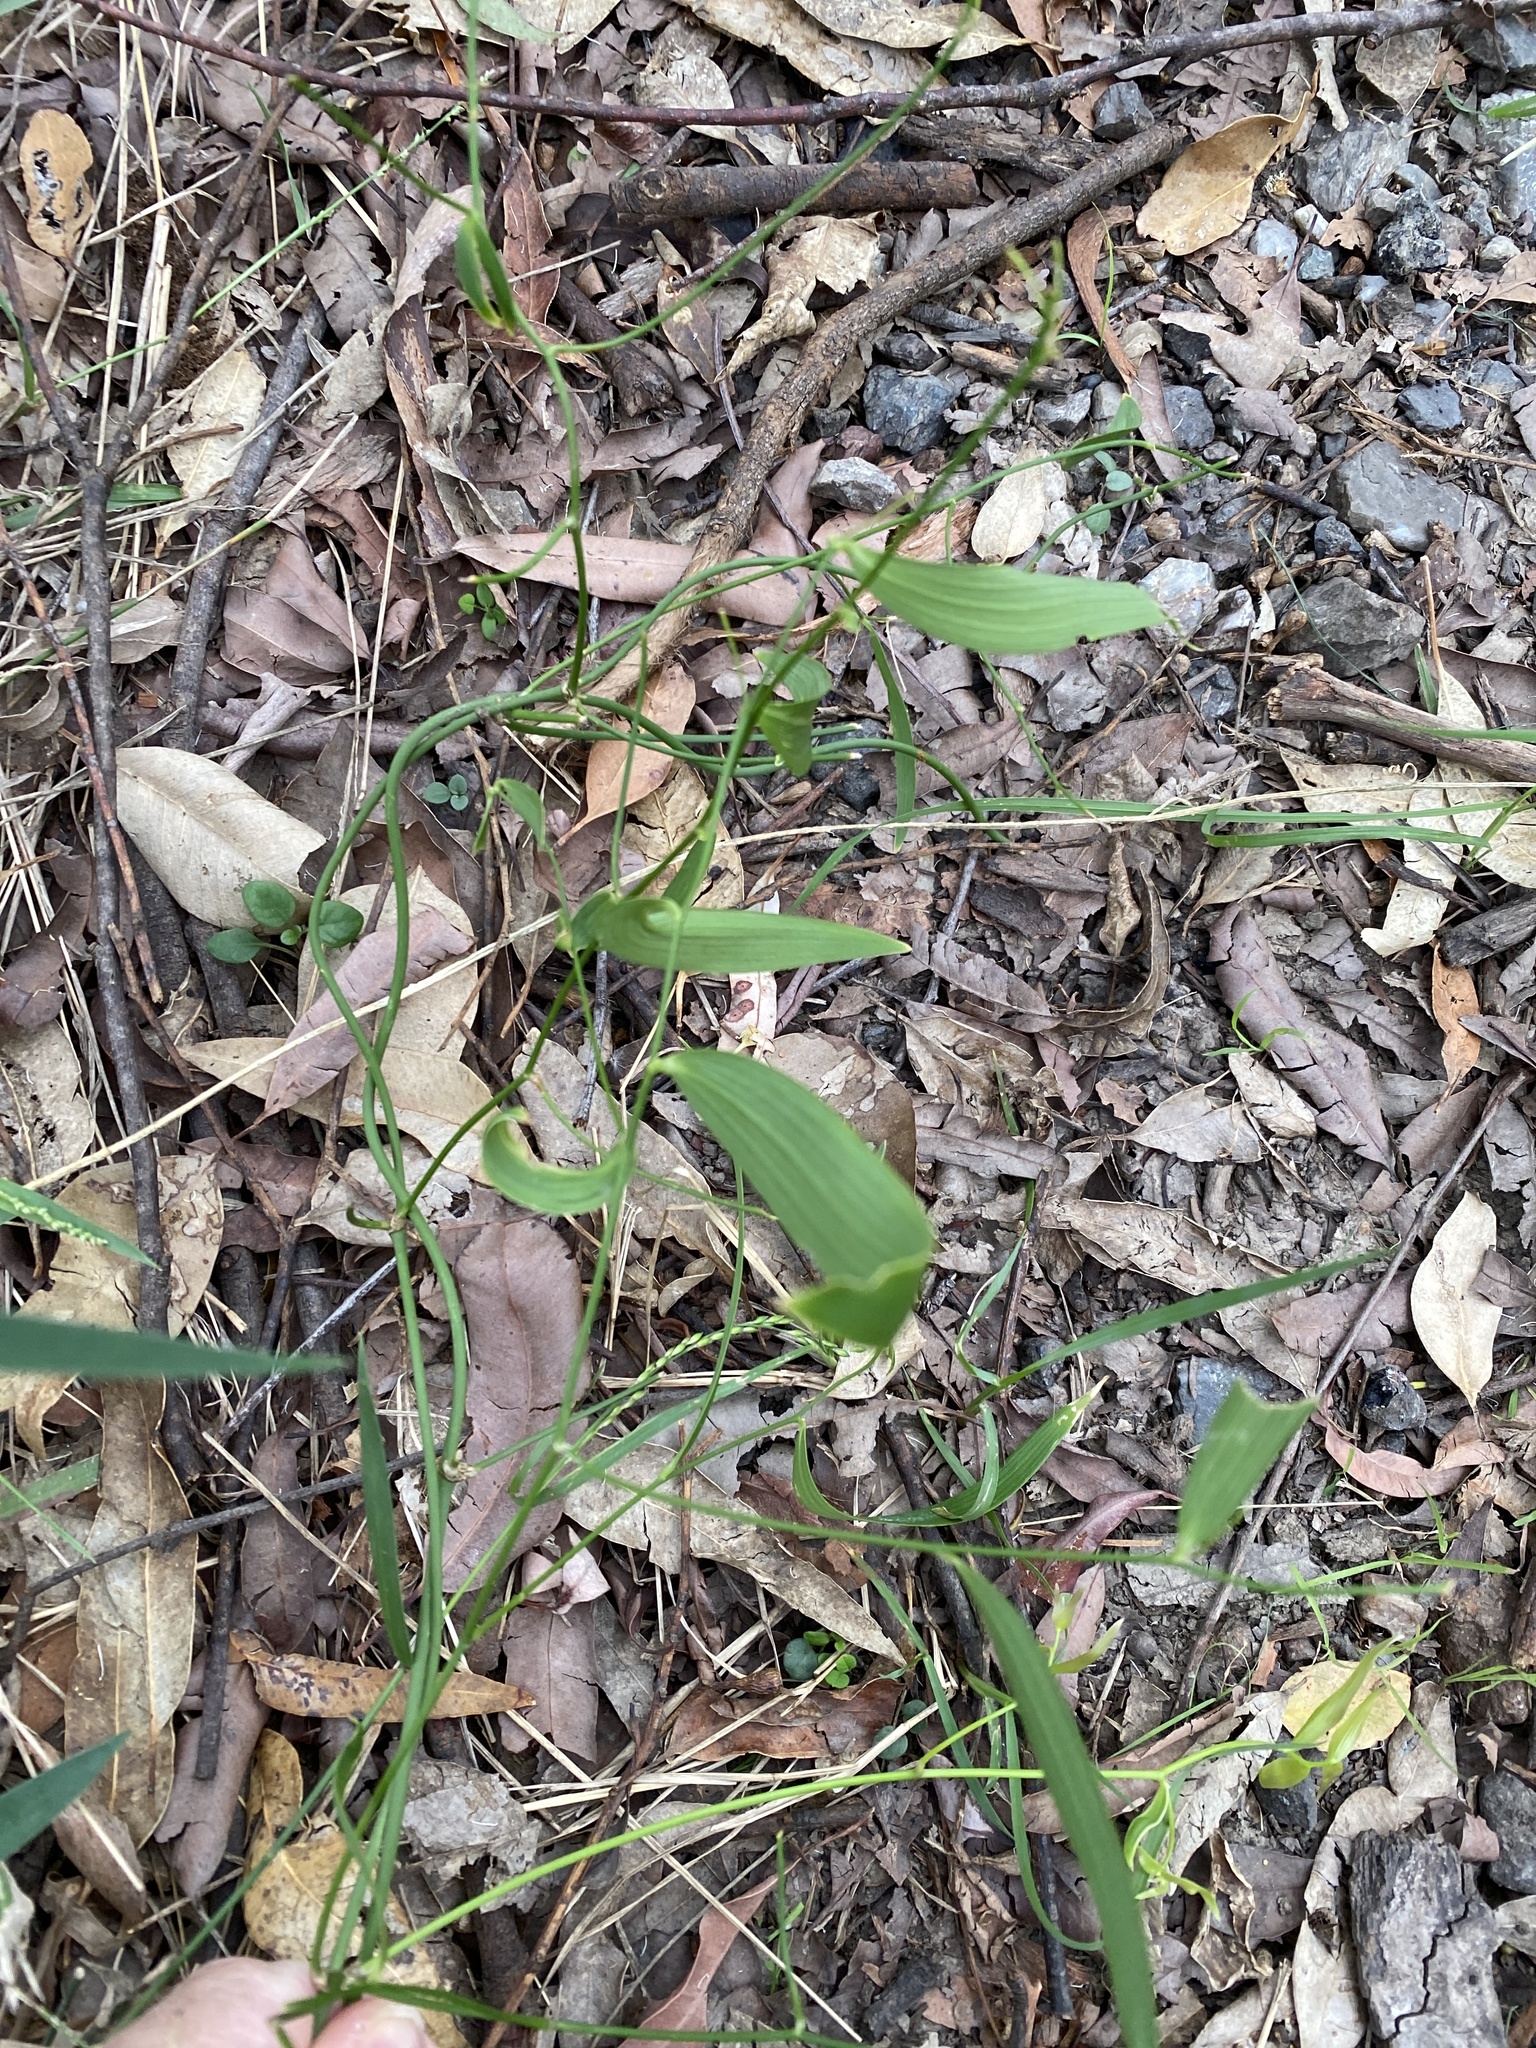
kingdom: Plantae
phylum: Tracheophyta
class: Liliopsida
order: Asparagales
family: Asparagaceae
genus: Eustrephus
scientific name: Eustrephus latifolius
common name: Orangevine
